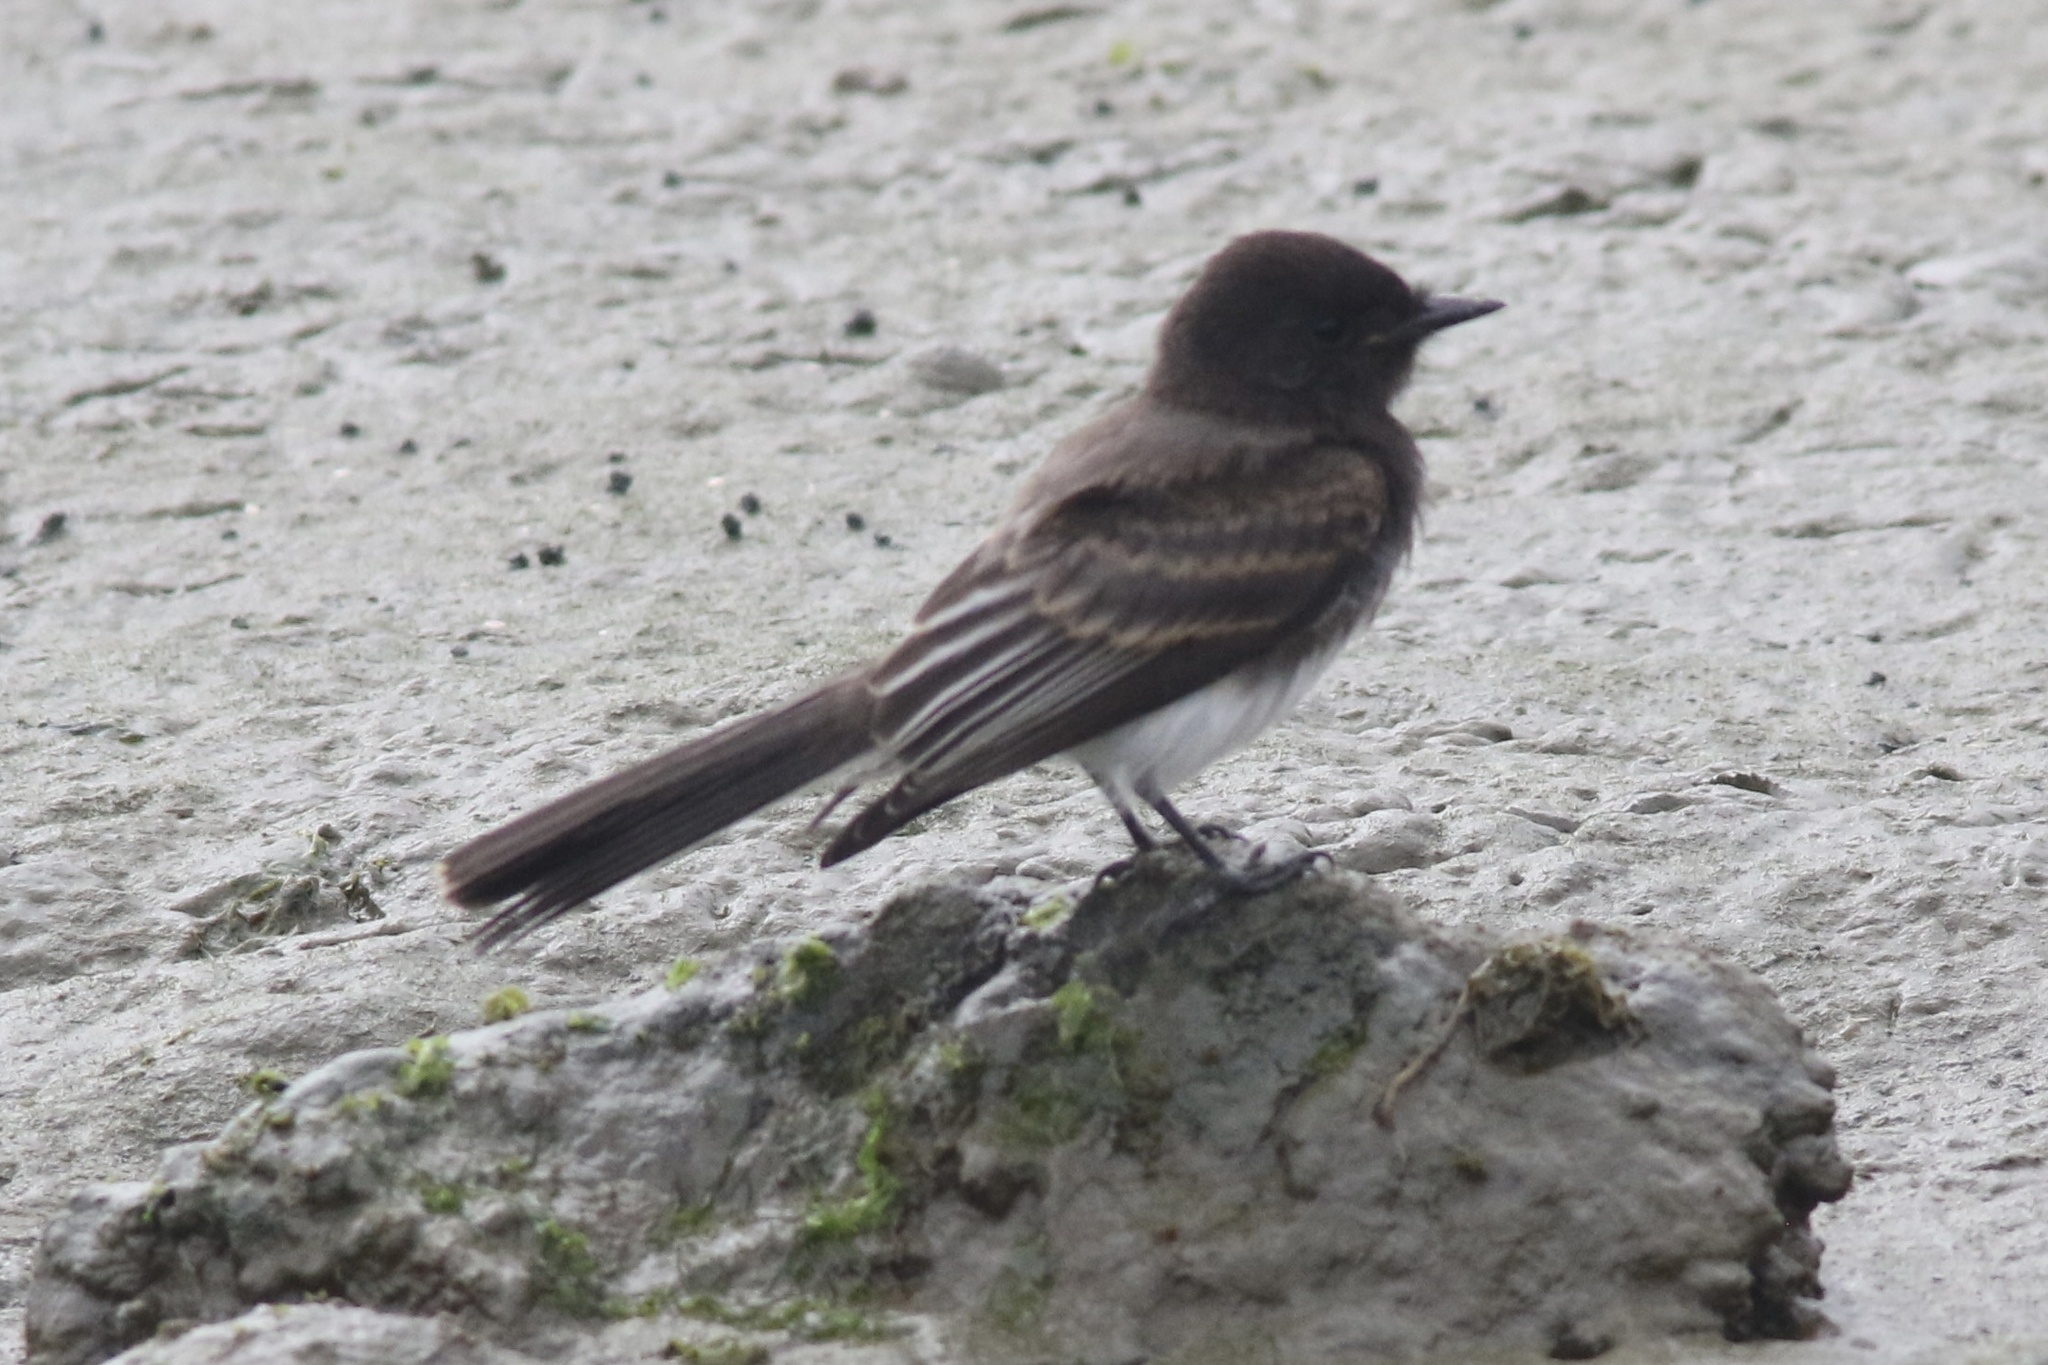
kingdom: Animalia
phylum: Chordata
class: Aves
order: Passeriformes
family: Tyrannidae
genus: Sayornis
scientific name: Sayornis nigricans
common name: Black phoebe
